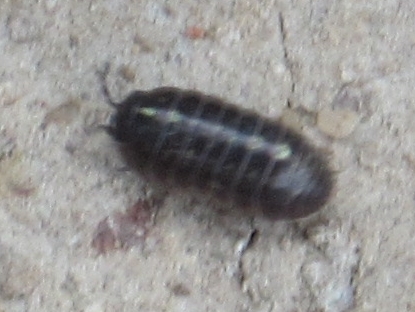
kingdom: Animalia
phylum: Arthropoda
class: Malacostraca
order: Isopoda
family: Armadillidiidae
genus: Armadillidium
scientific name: Armadillidium vulgare
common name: Common pill woodlouse
